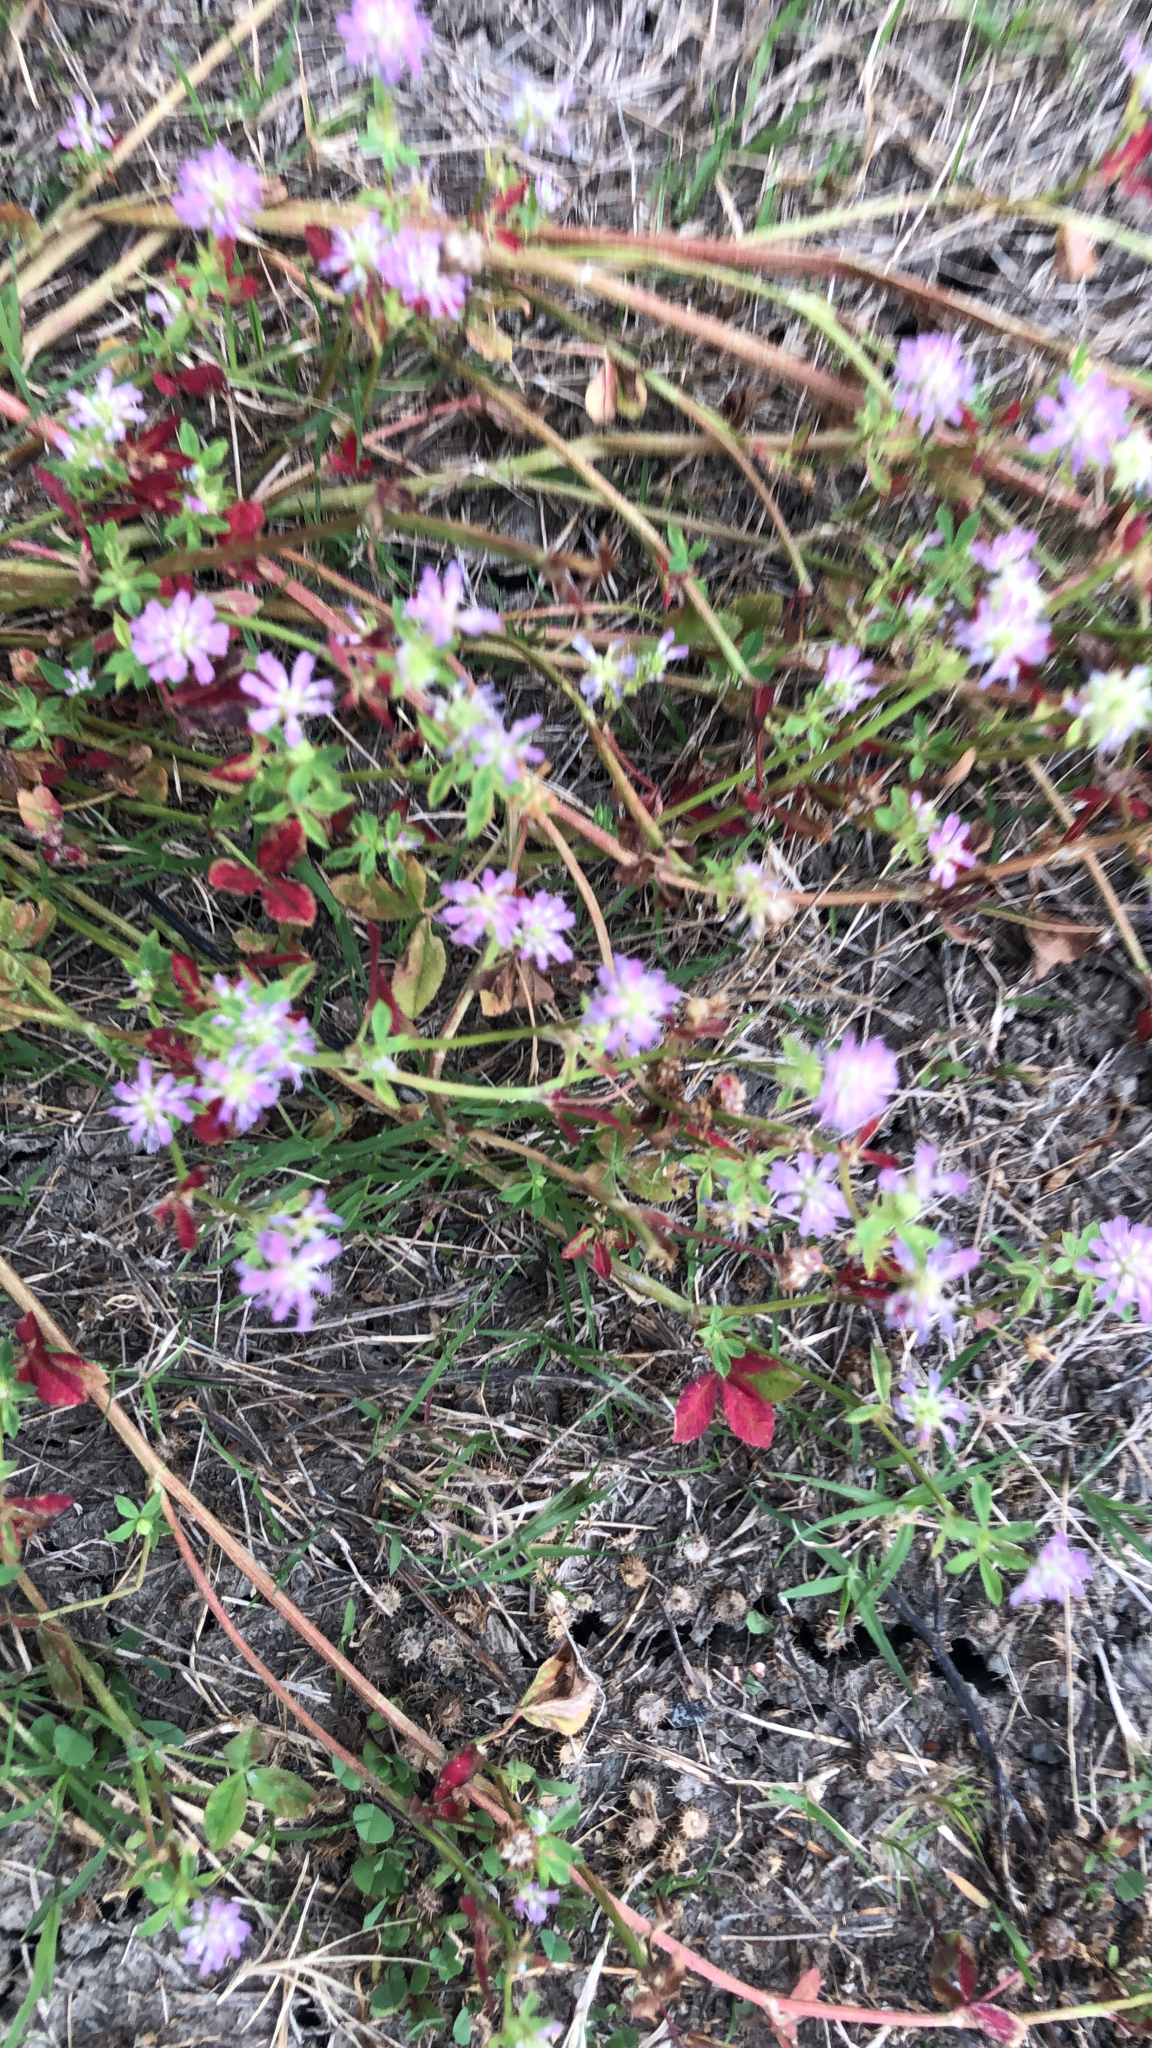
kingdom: Plantae
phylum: Tracheophyta
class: Magnoliopsida
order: Fabales
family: Fabaceae
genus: Trifolium
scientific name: Trifolium resupinatum
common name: Reversed clover
